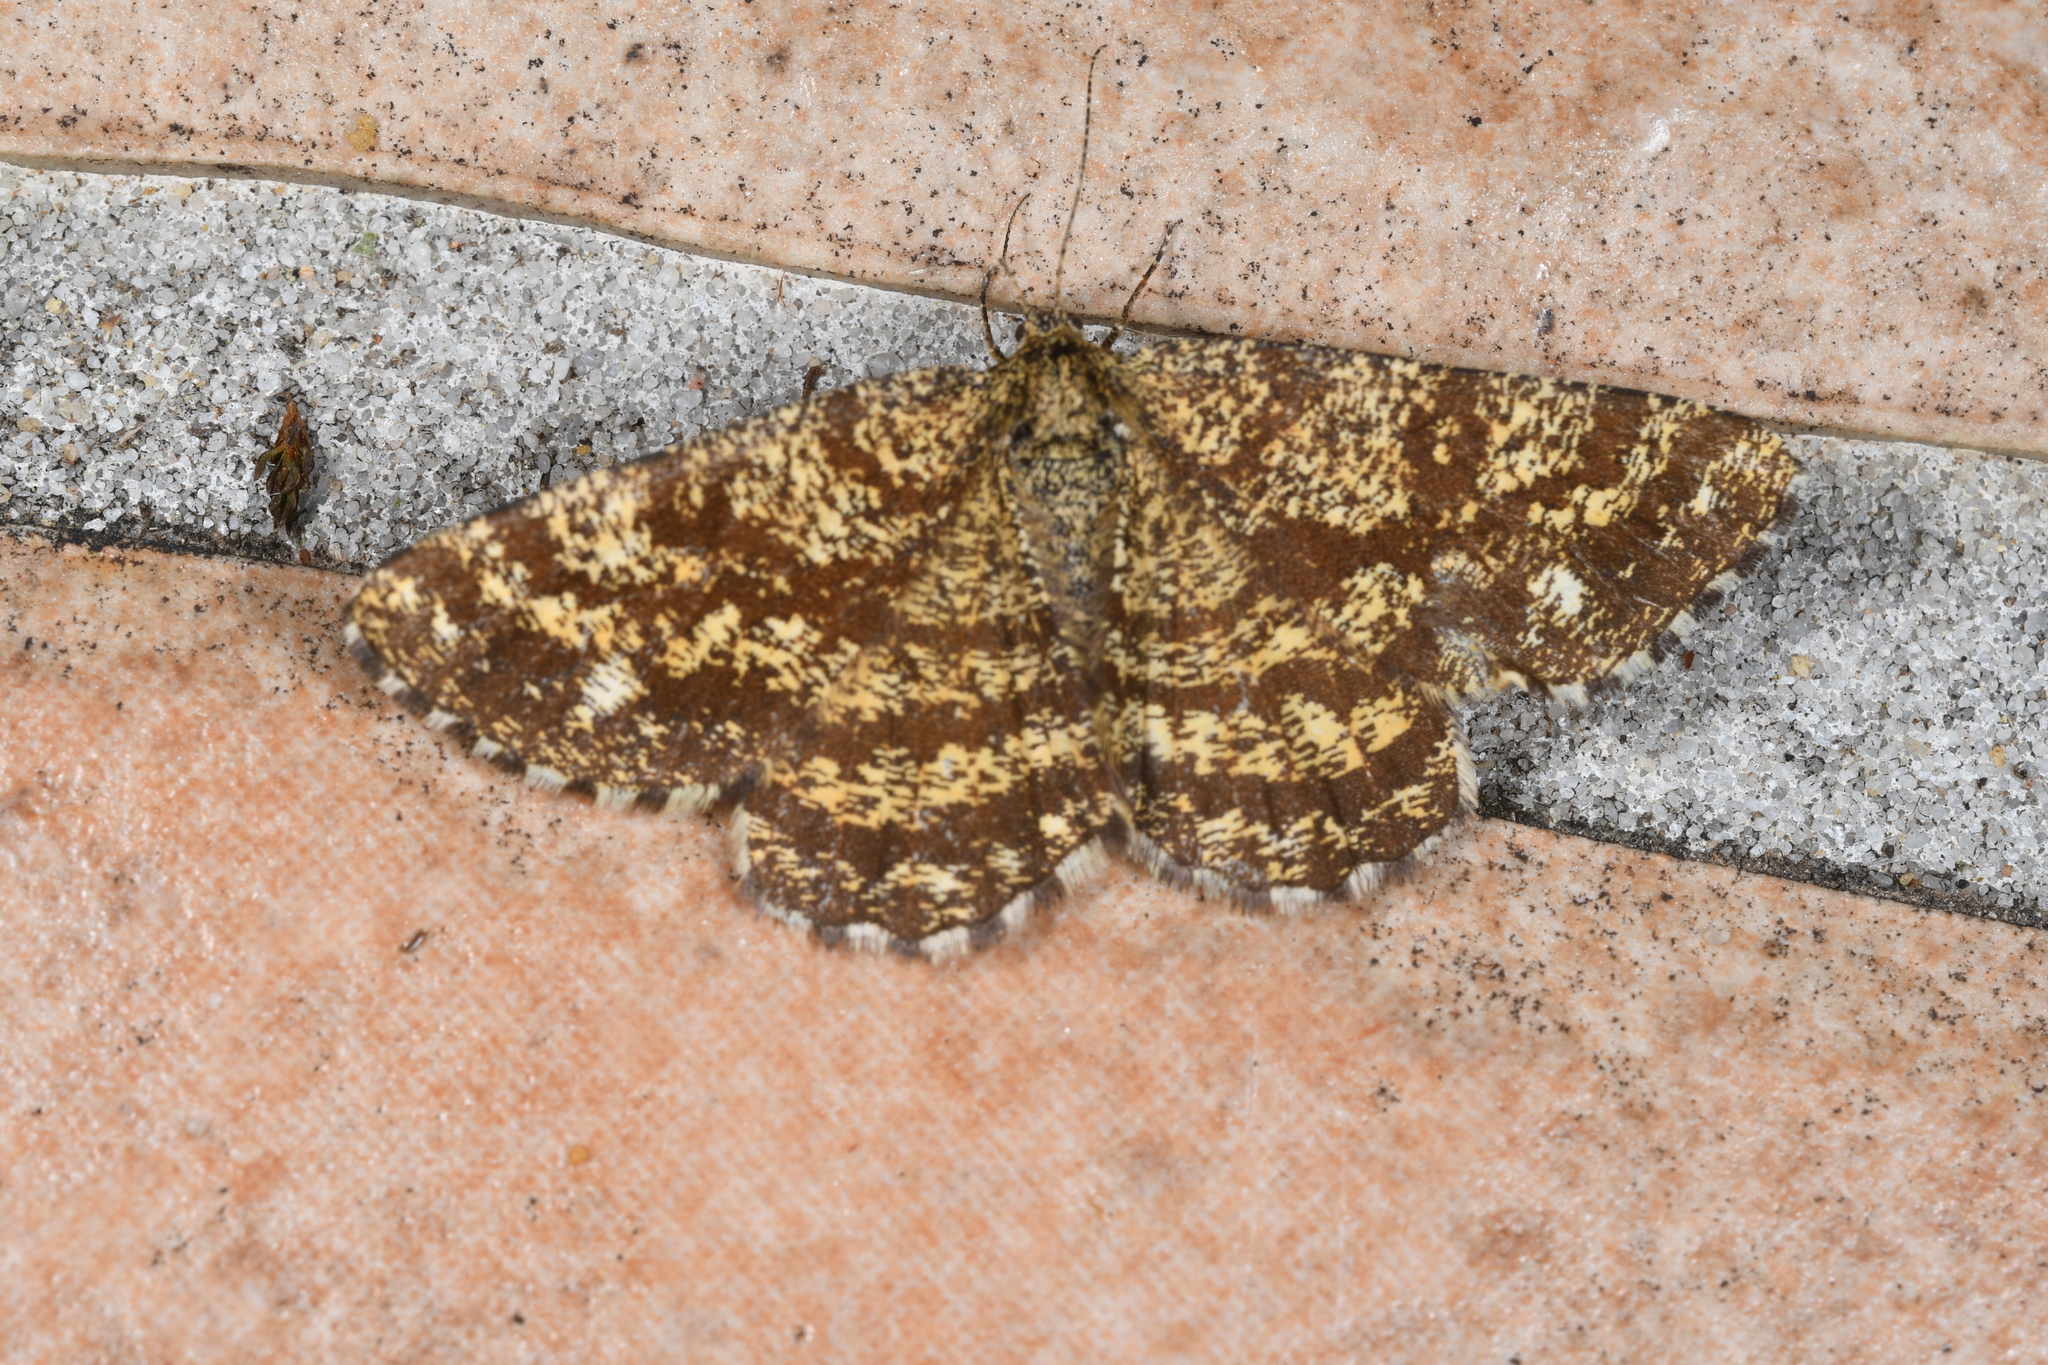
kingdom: Animalia
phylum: Arthropoda
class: Insecta
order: Lepidoptera
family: Geometridae
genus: Ematurga
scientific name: Ematurga atomaria
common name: Common heath
